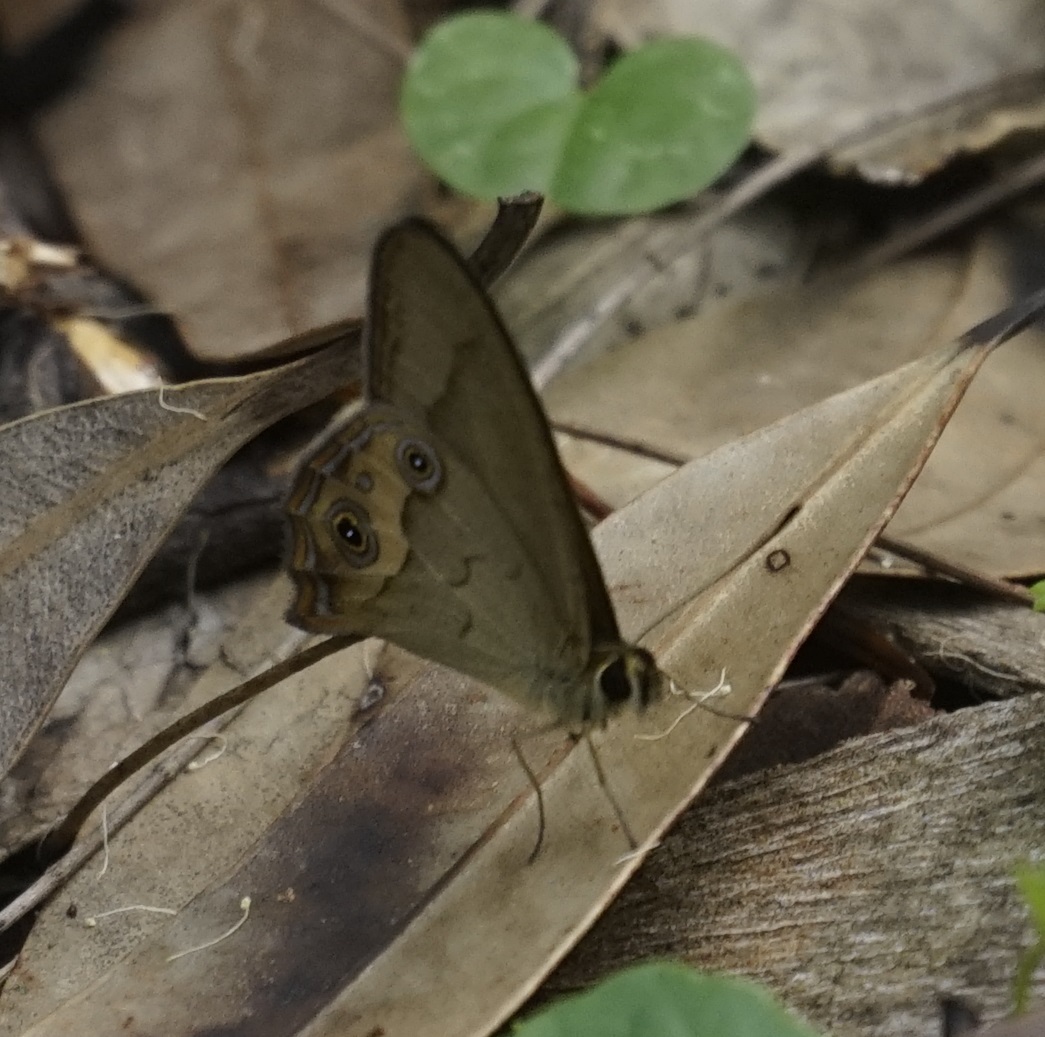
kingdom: Animalia
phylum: Arthropoda
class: Insecta
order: Lepidoptera
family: Nymphalidae
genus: Hypocysta
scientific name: Hypocysta metirius
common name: Brown ringlet
